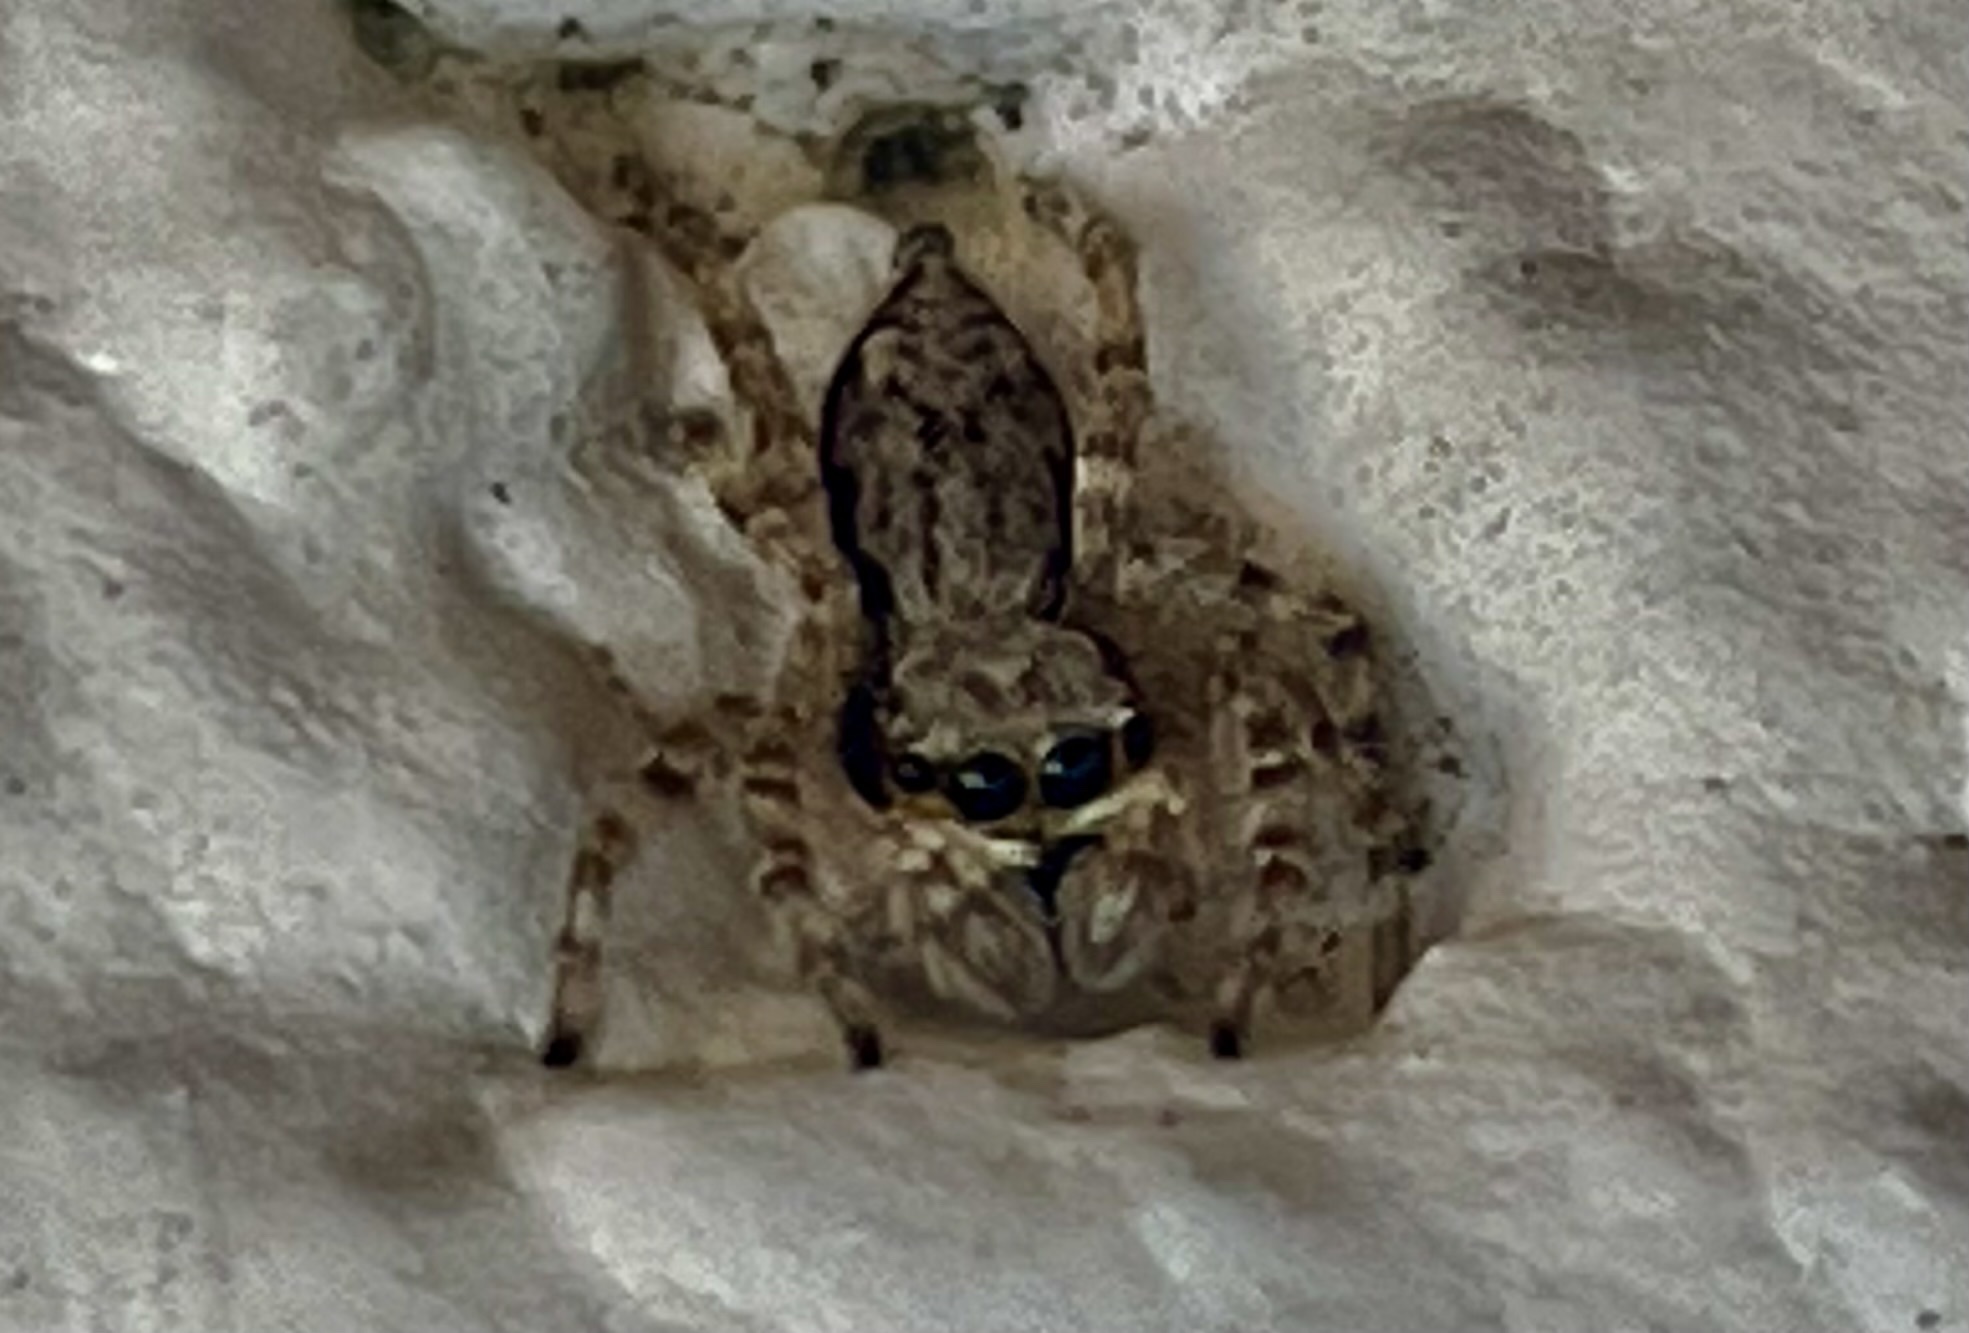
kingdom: Animalia
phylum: Arthropoda
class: Arachnida
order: Araneae
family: Salticidae
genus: Menemerus
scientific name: Menemerus bivittatus
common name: Gray wall jumper
